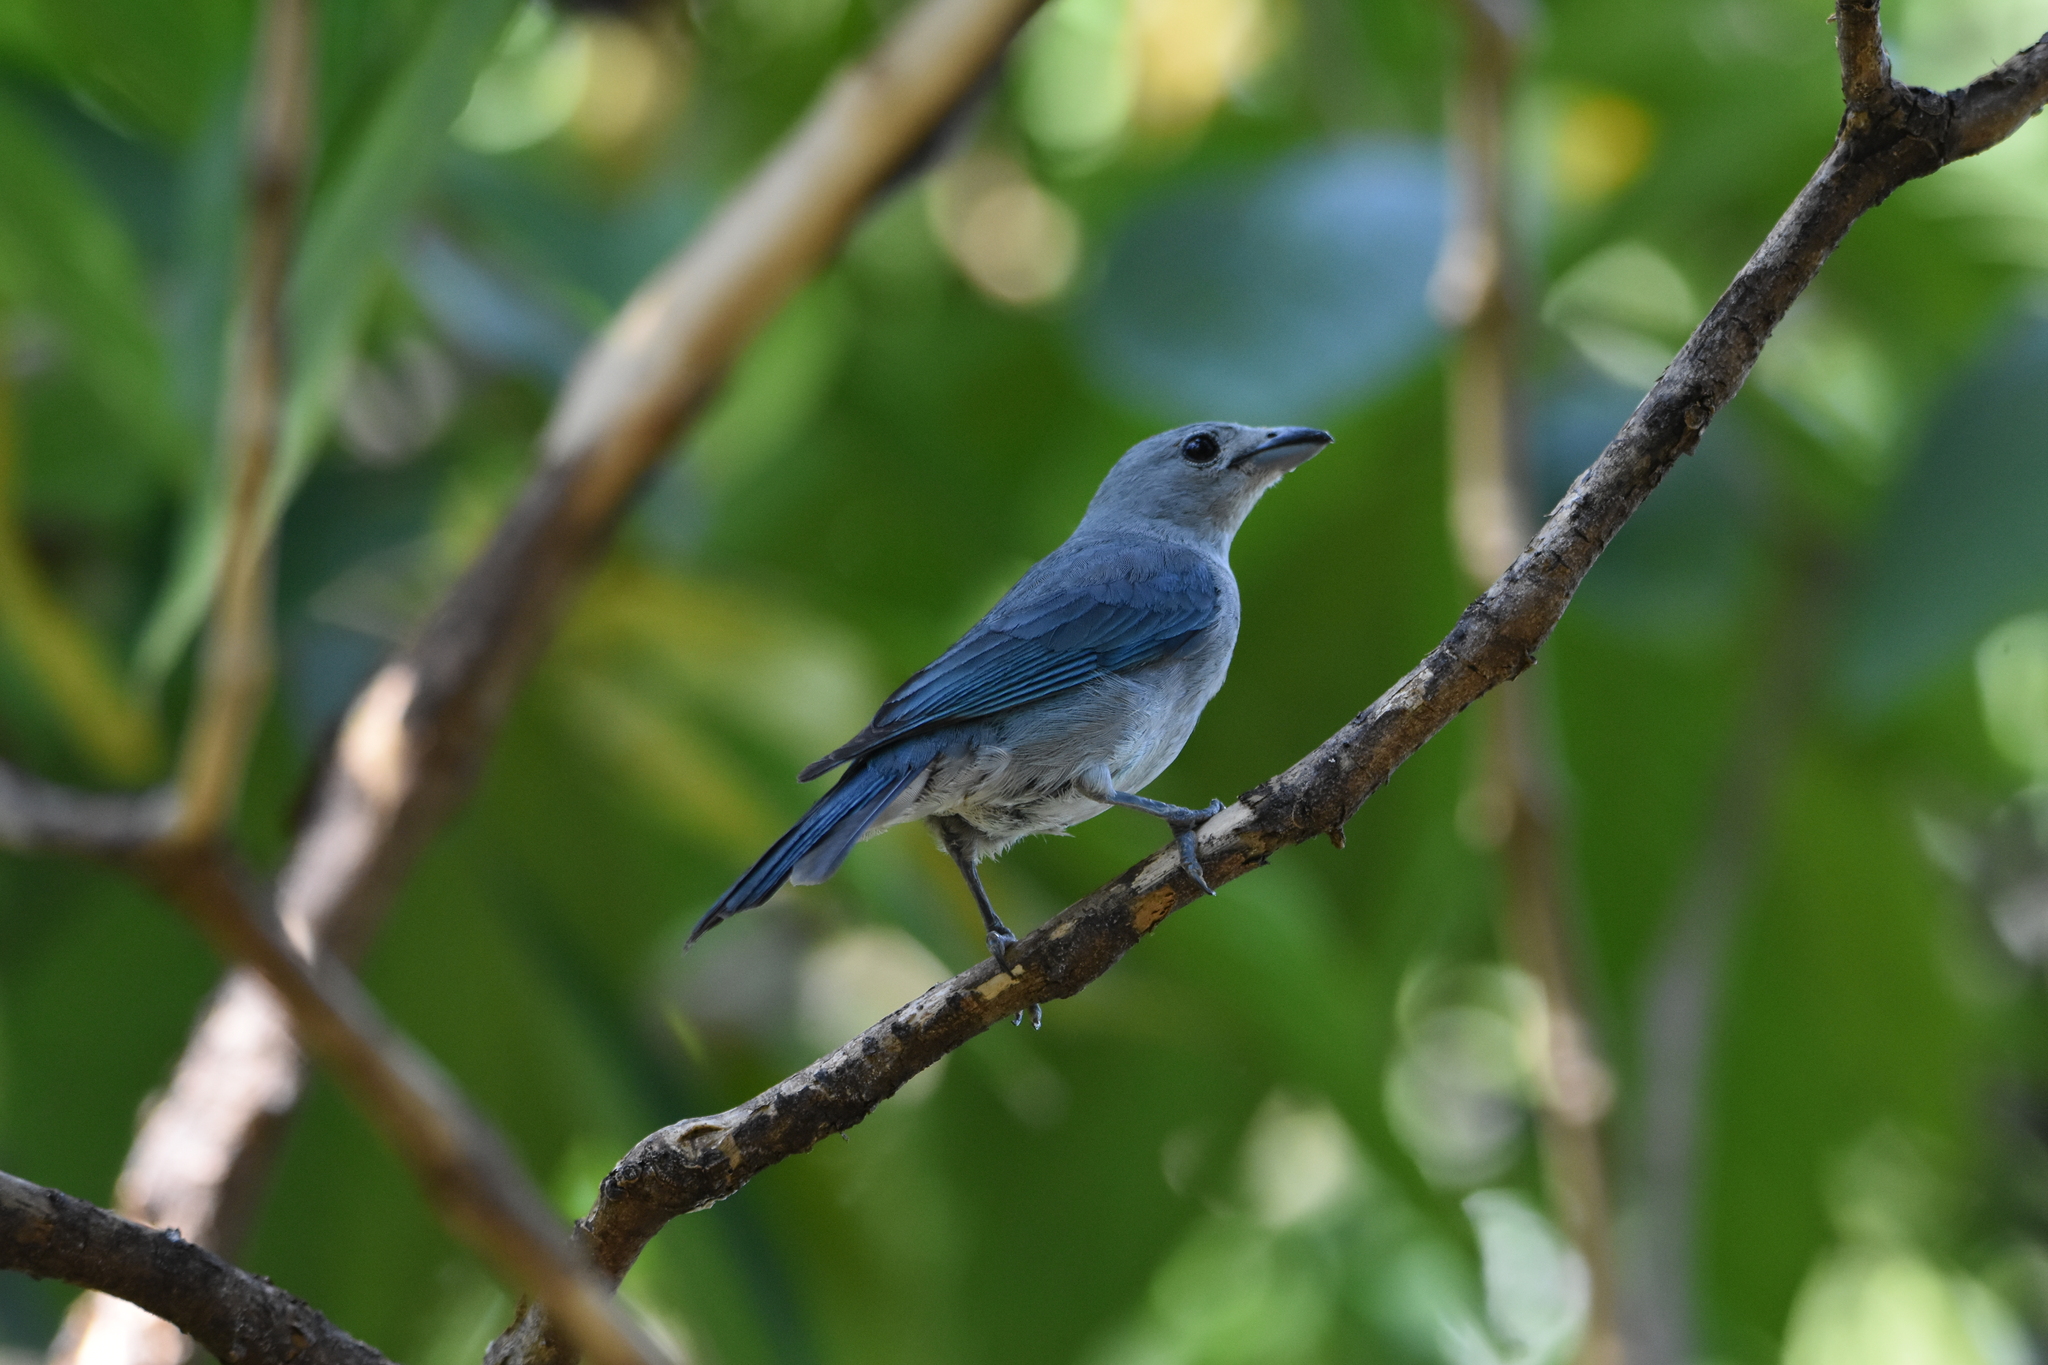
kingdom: Animalia
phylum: Chordata
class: Aves
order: Passeriformes
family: Thraupidae
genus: Thraupis
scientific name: Thraupis sayaca
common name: Sayaca tanager
